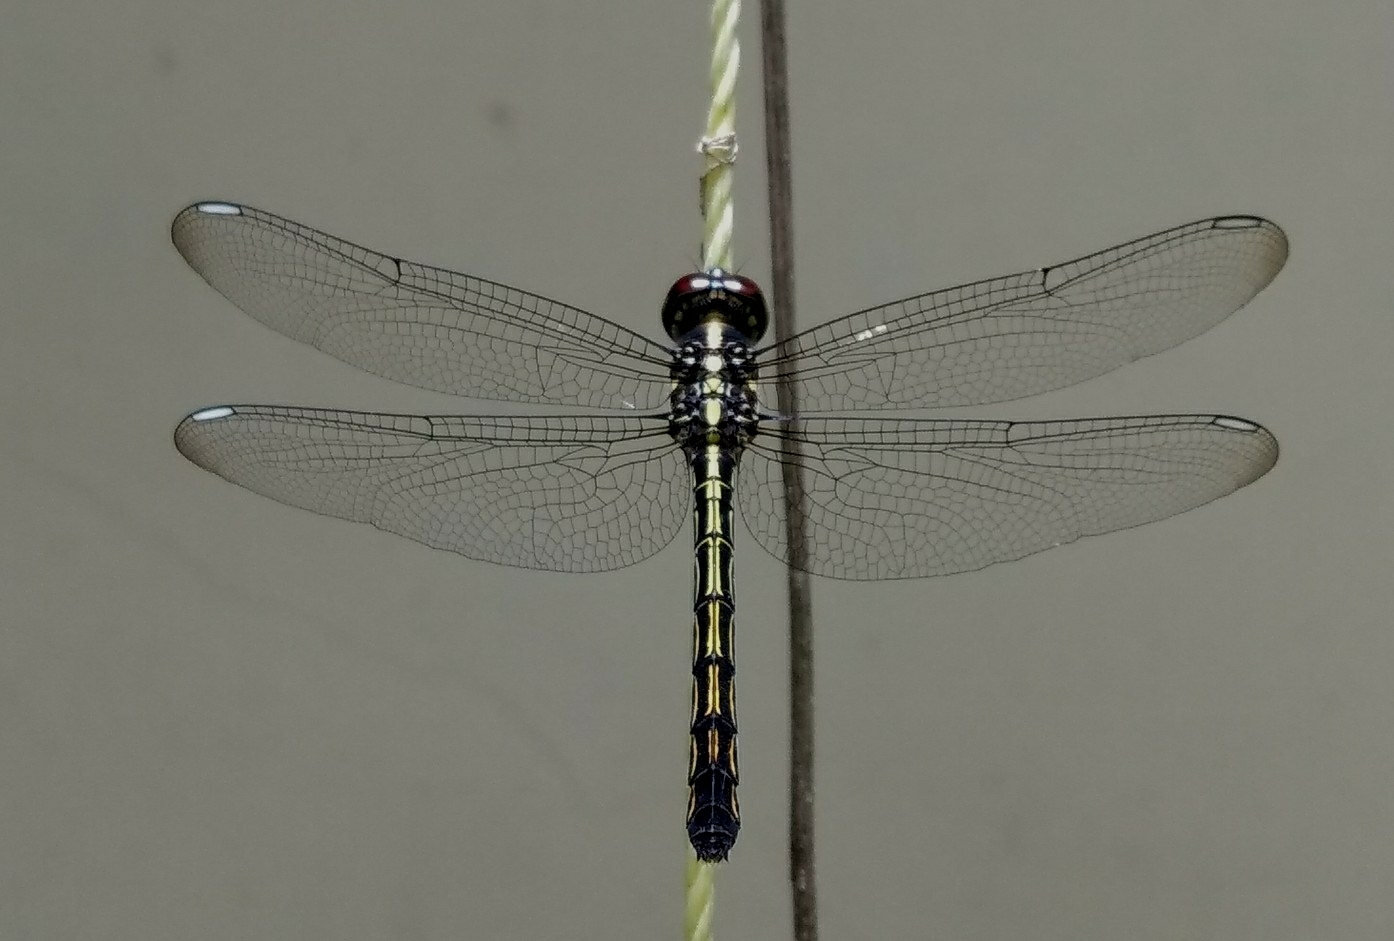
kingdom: Animalia
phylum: Arthropoda
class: Insecta
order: Odonata
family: Libellulidae
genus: Cratilla
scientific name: Cratilla lineata
